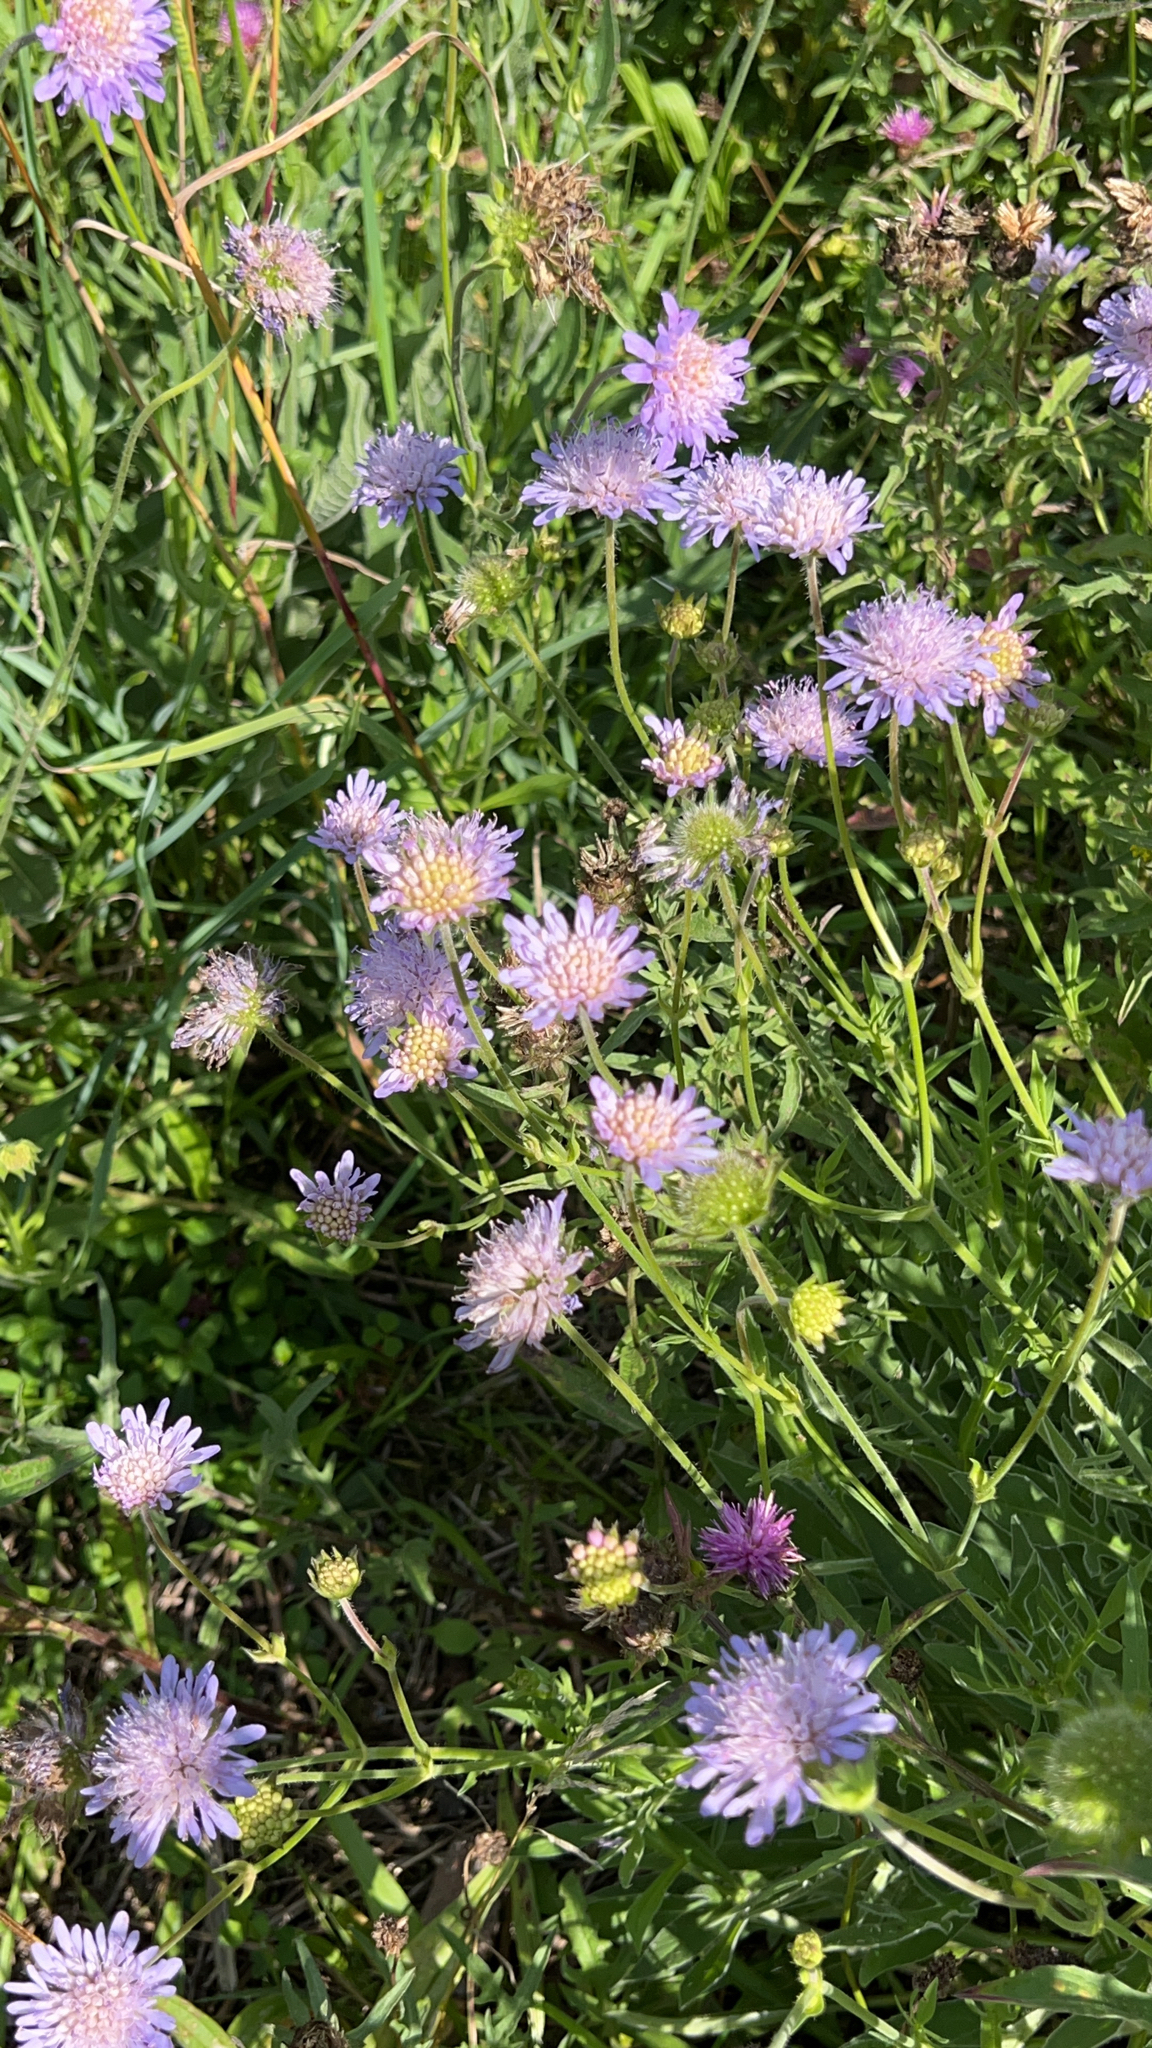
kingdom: Plantae
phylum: Tracheophyta
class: Magnoliopsida
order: Dipsacales
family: Caprifoliaceae
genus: Knautia
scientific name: Knautia arvensis
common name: Field scabiosa
